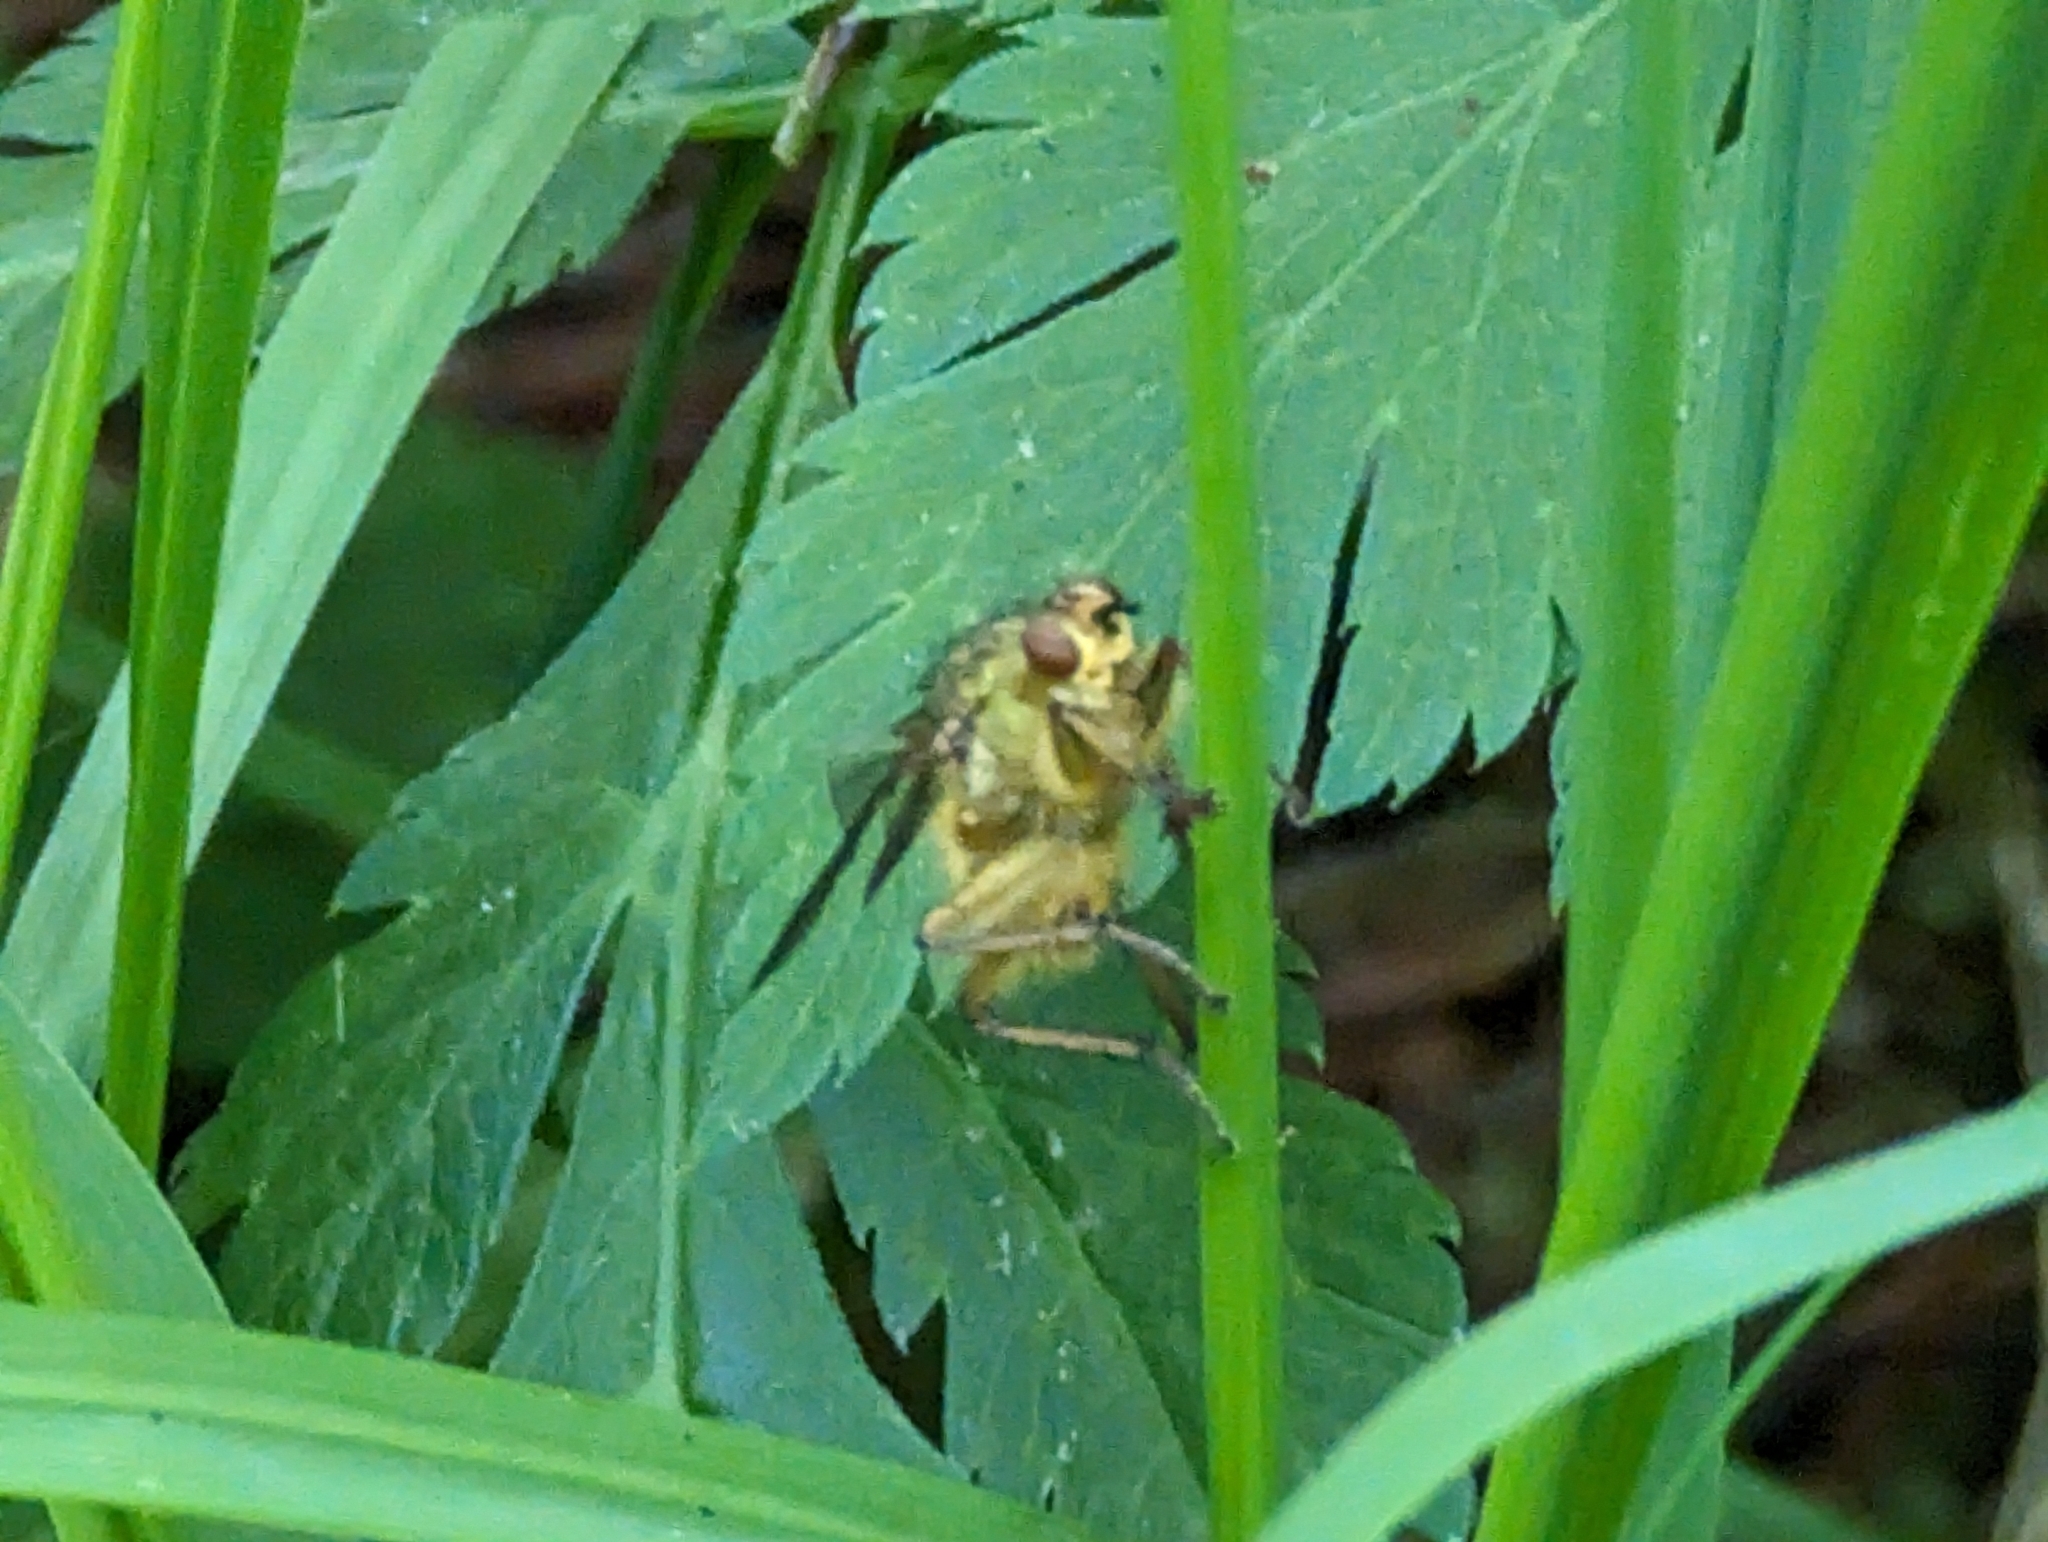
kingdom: Animalia
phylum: Arthropoda
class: Insecta
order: Diptera
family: Scathophagidae
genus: Scathophaga
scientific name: Scathophaga stercoraria
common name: Yellow dung fly
